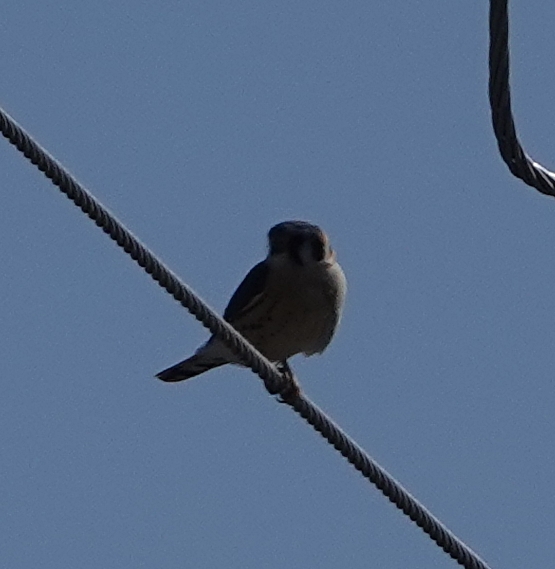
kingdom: Animalia
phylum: Chordata
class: Aves
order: Falconiformes
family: Falconidae
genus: Falco
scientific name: Falco sparverius
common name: American kestrel
